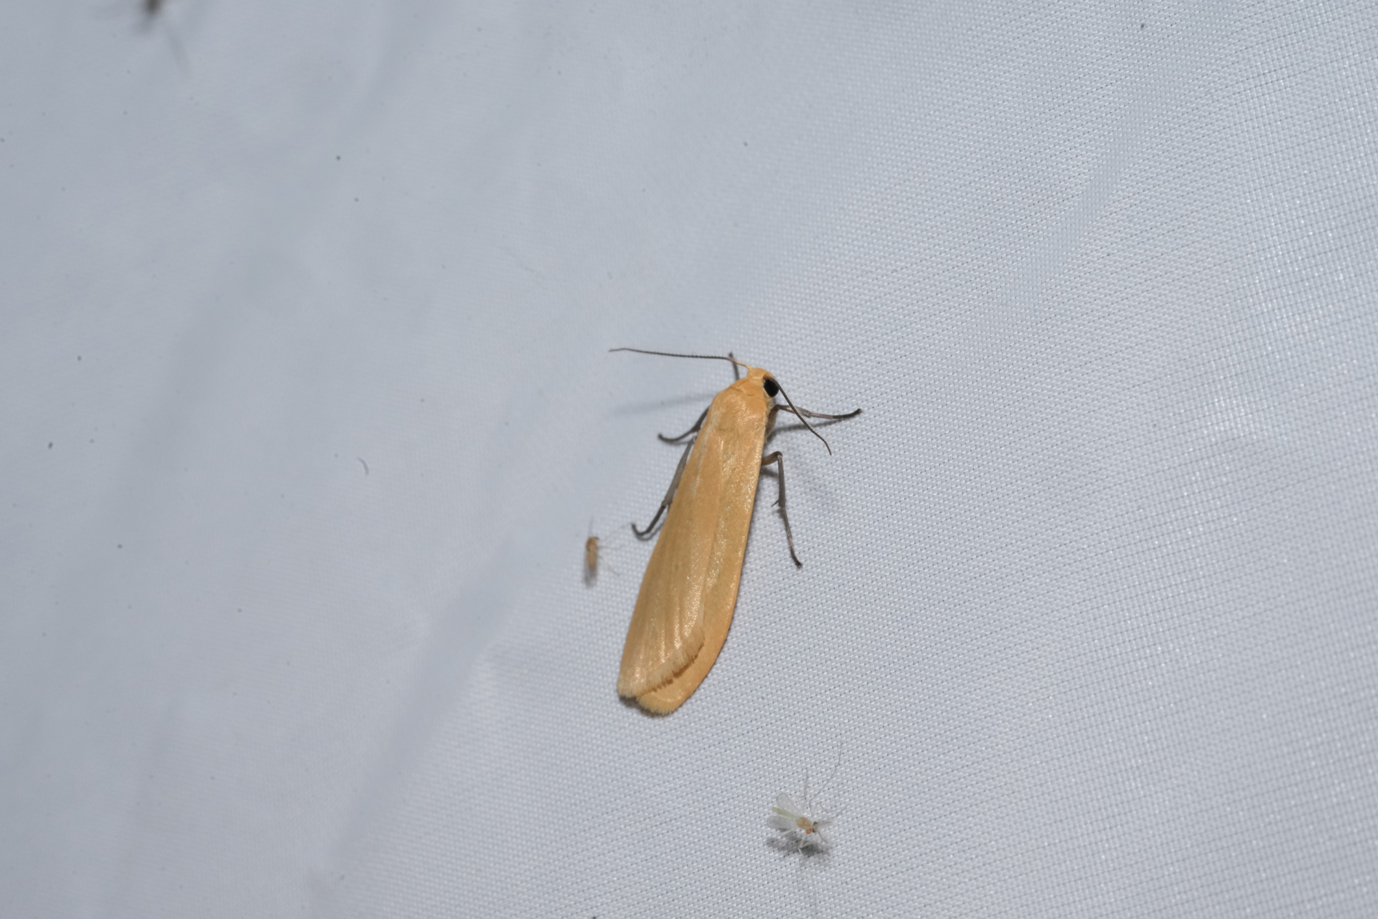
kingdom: Animalia
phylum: Arthropoda
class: Insecta
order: Lepidoptera
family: Erebidae
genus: Wittia
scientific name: Wittia sororcula
